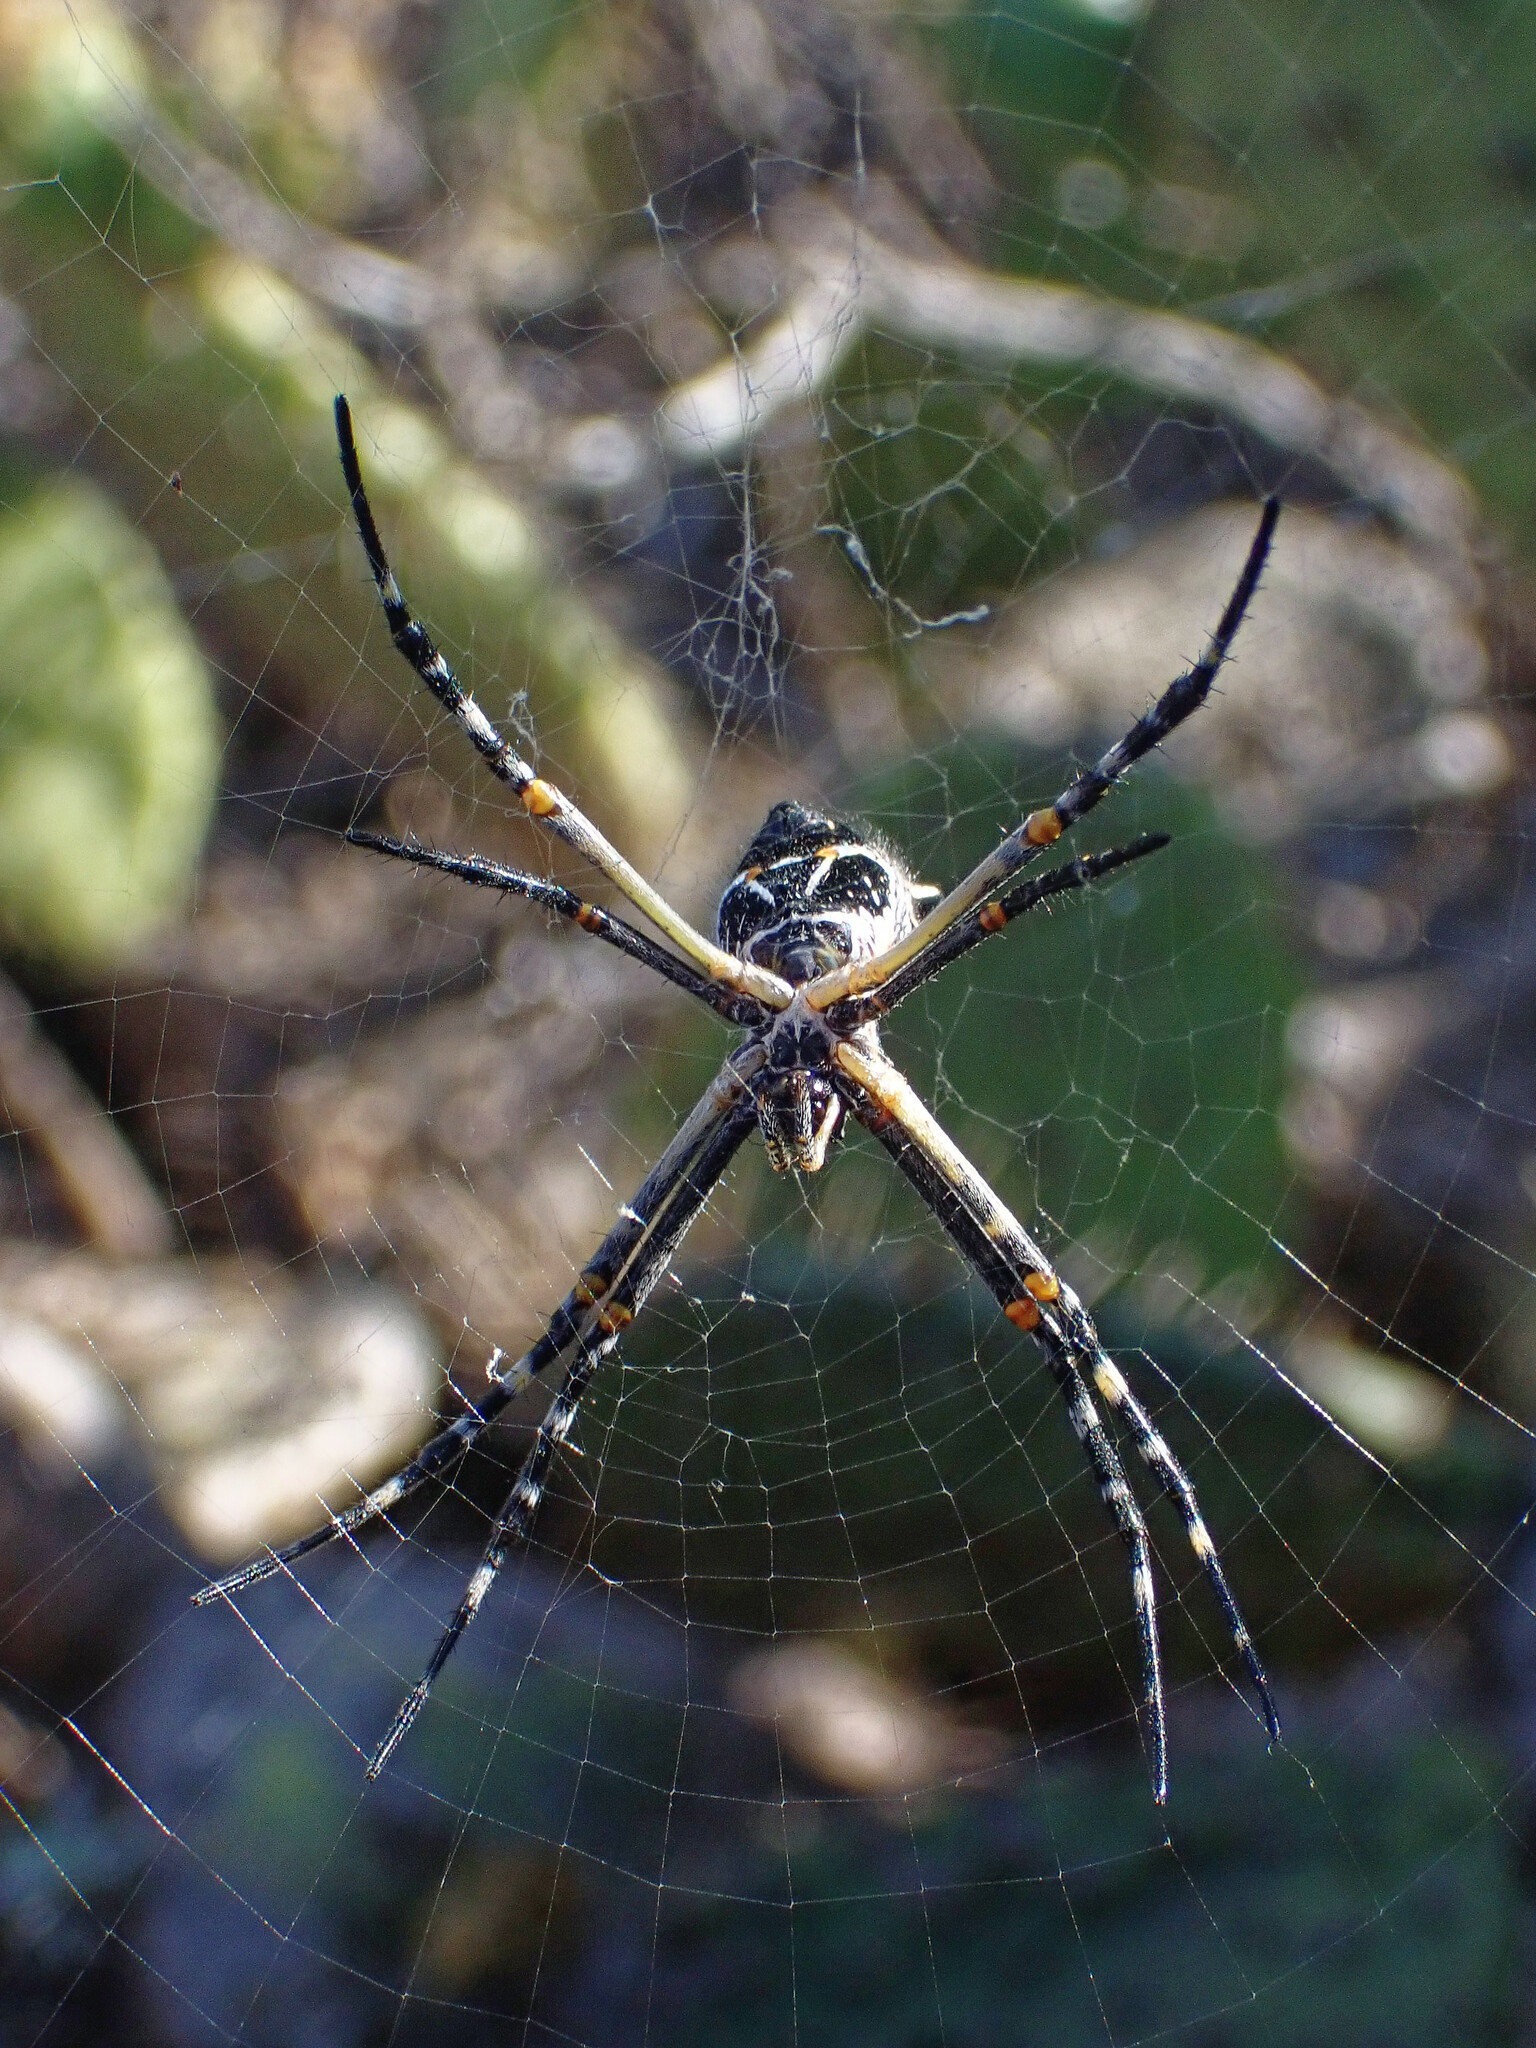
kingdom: Animalia
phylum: Arthropoda
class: Arachnida
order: Araneae
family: Araneidae
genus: Argiope
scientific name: Argiope argentata
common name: Orb weavers
